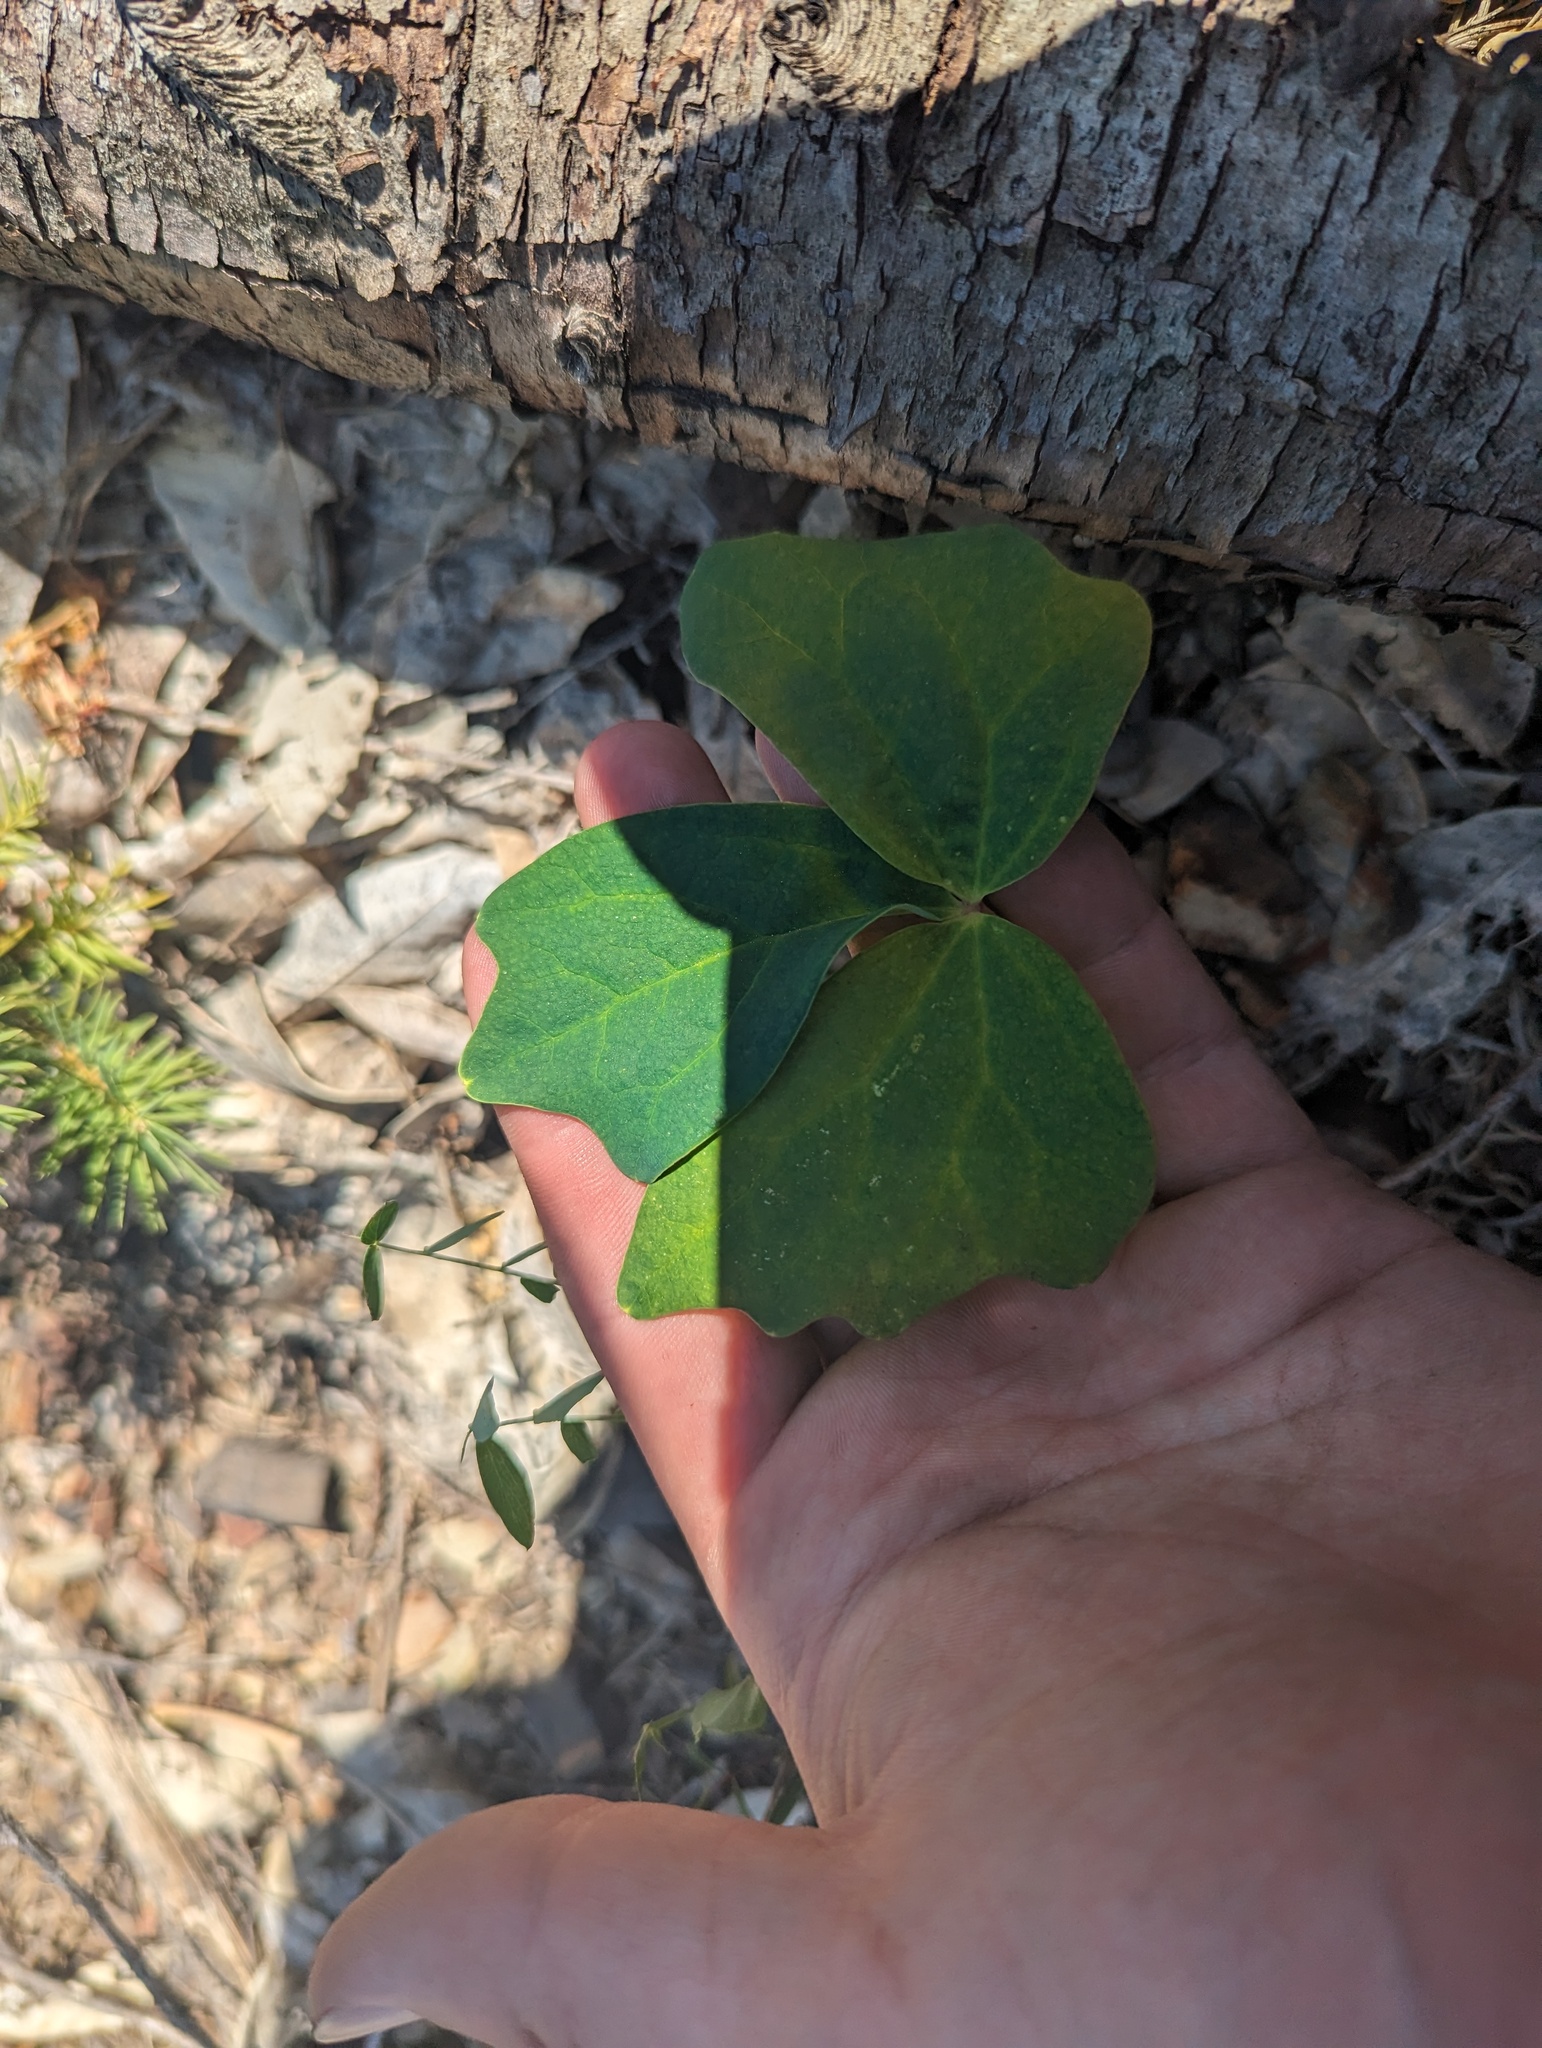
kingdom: Plantae
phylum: Tracheophyta
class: Magnoliopsida
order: Ranunculales
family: Berberidaceae
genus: Achlys
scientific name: Achlys triphylla
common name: Vanilla-leaf
